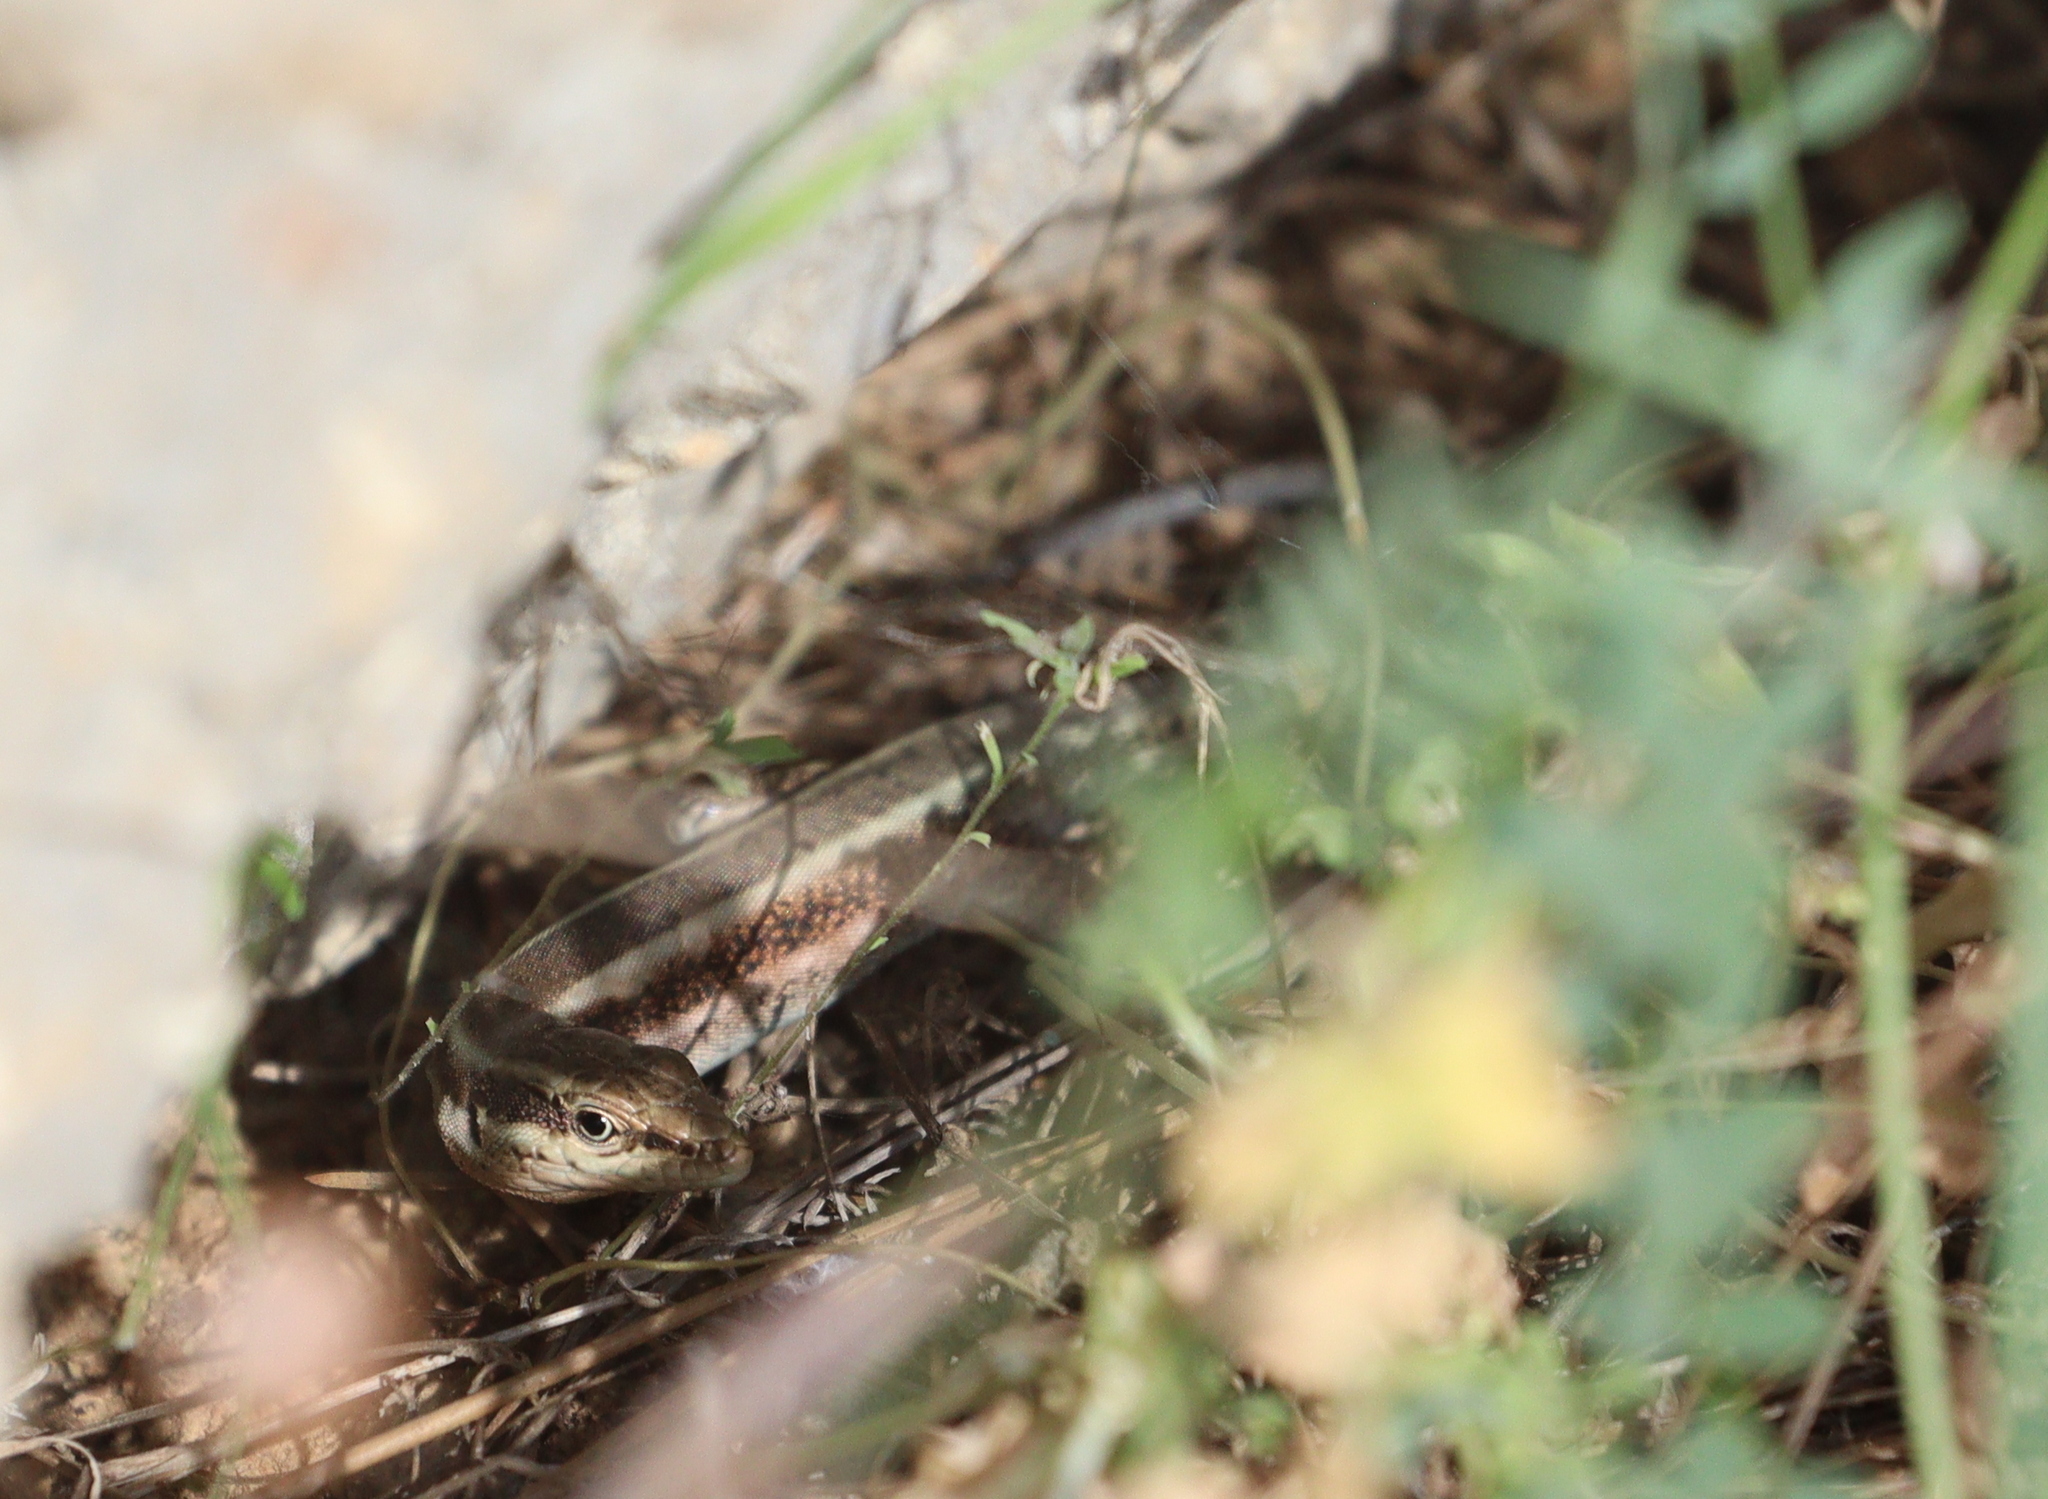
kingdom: Animalia
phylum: Chordata
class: Squamata
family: Lacertidae
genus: Anatololacerta
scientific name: Anatololacerta finikensis
